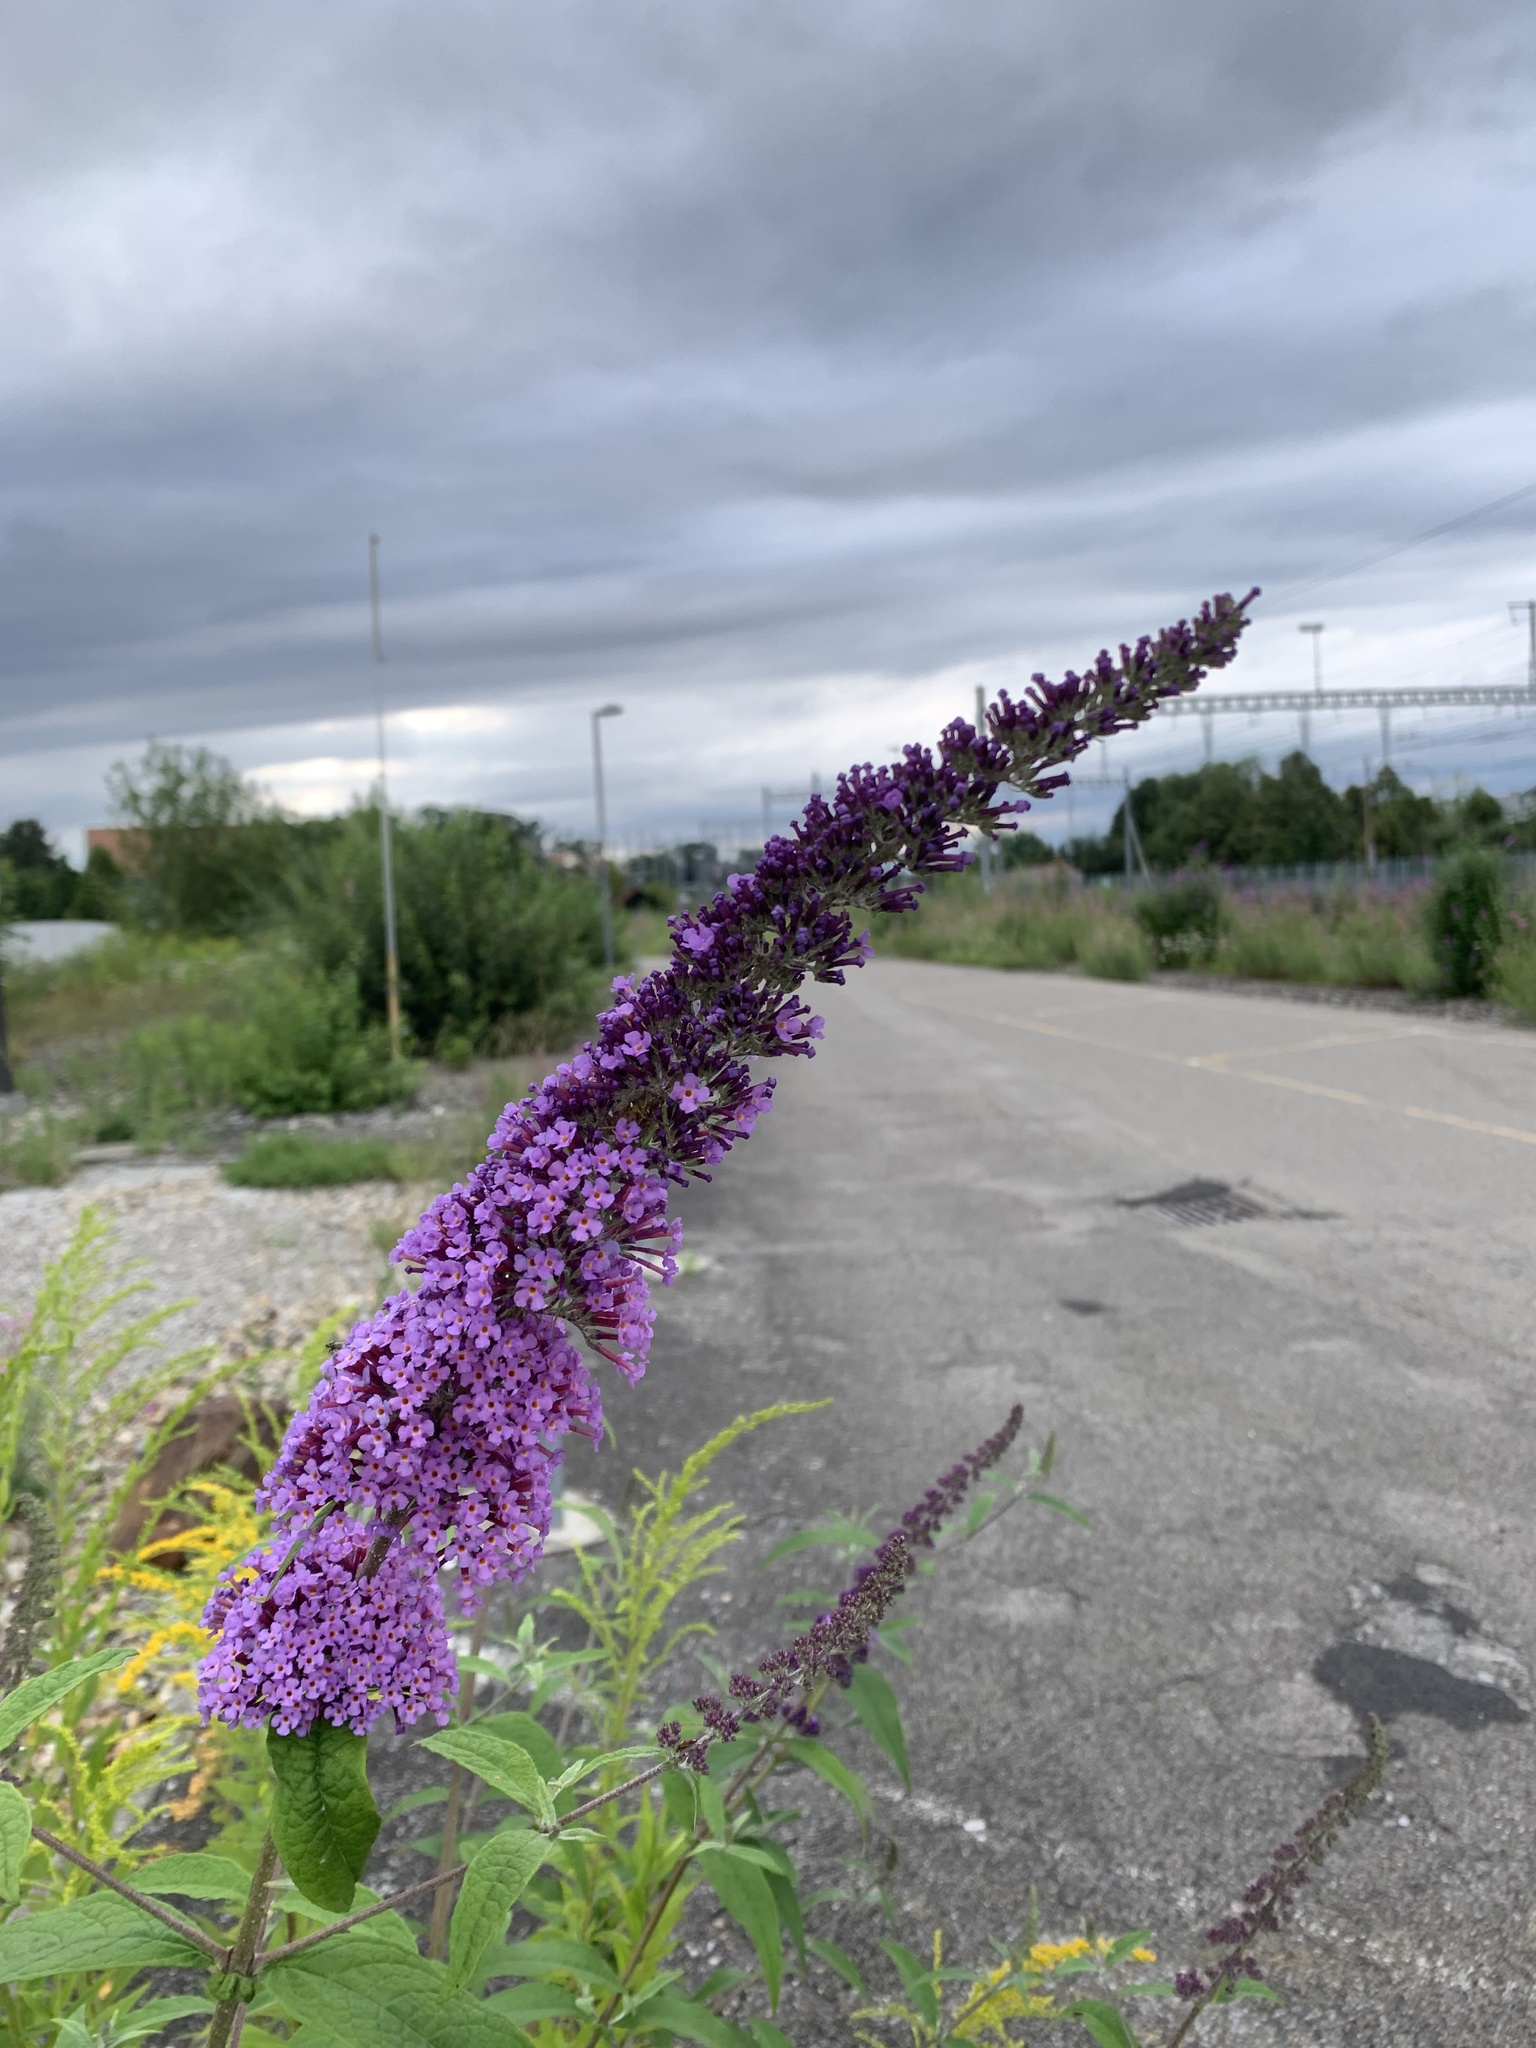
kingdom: Plantae
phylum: Tracheophyta
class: Magnoliopsida
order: Lamiales
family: Scrophulariaceae
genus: Buddleja
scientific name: Buddleja davidii
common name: Butterfly-bush
